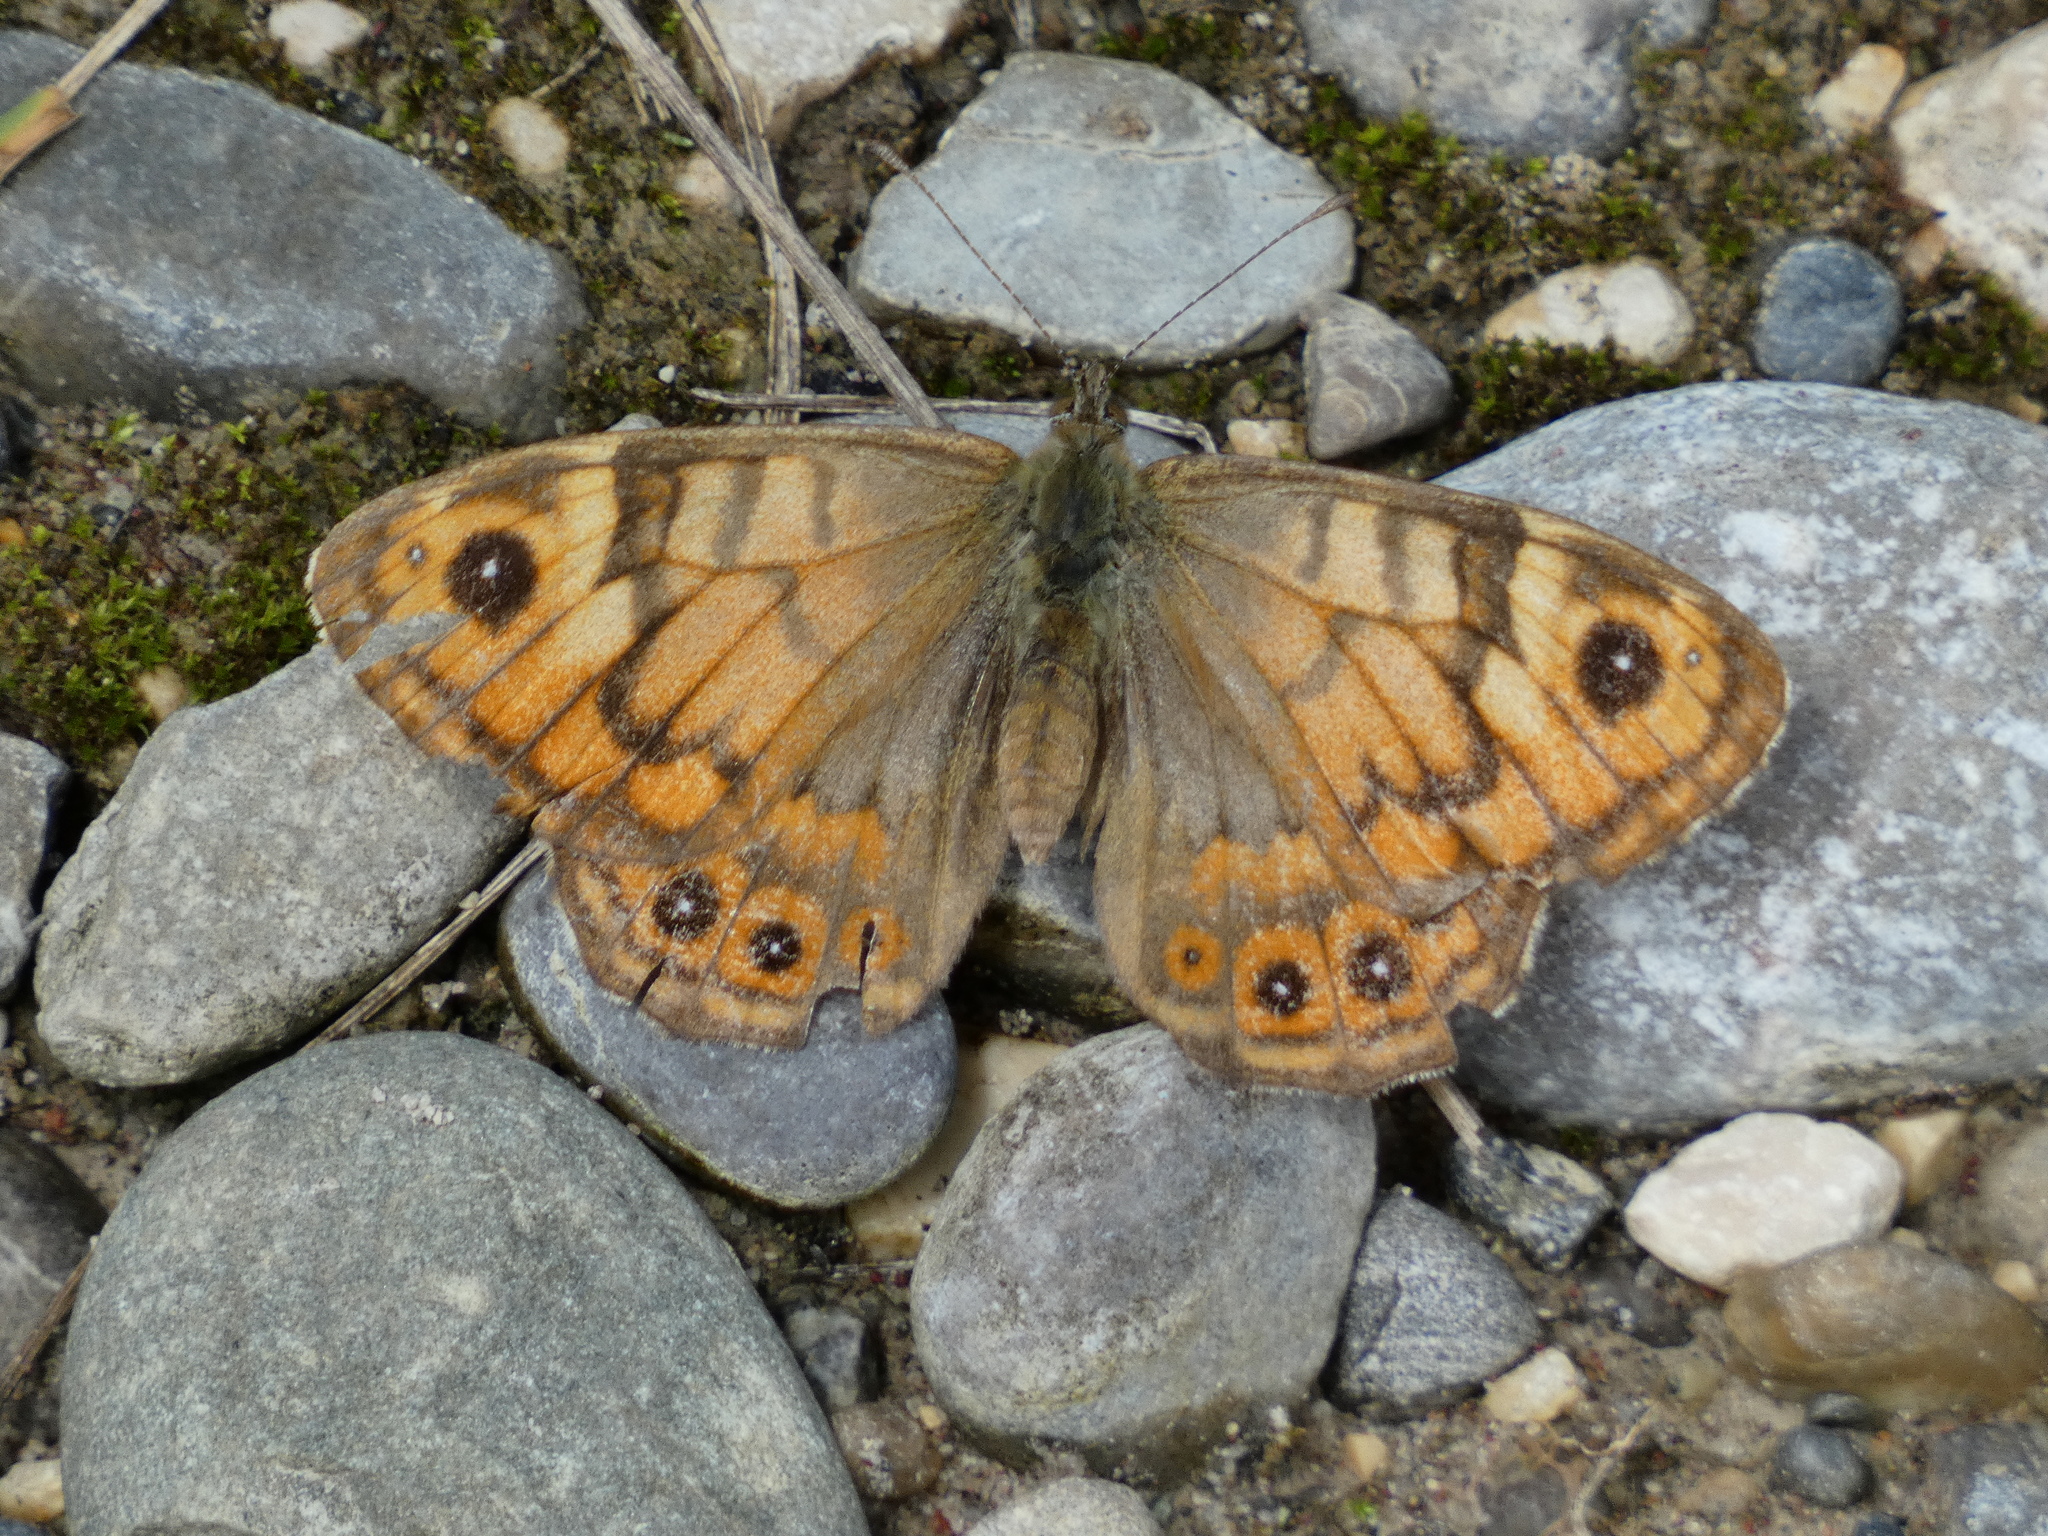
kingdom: Animalia
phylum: Arthropoda
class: Insecta
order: Lepidoptera
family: Nymphalidae
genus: Pararge
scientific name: Pararge Lasiommata megera
